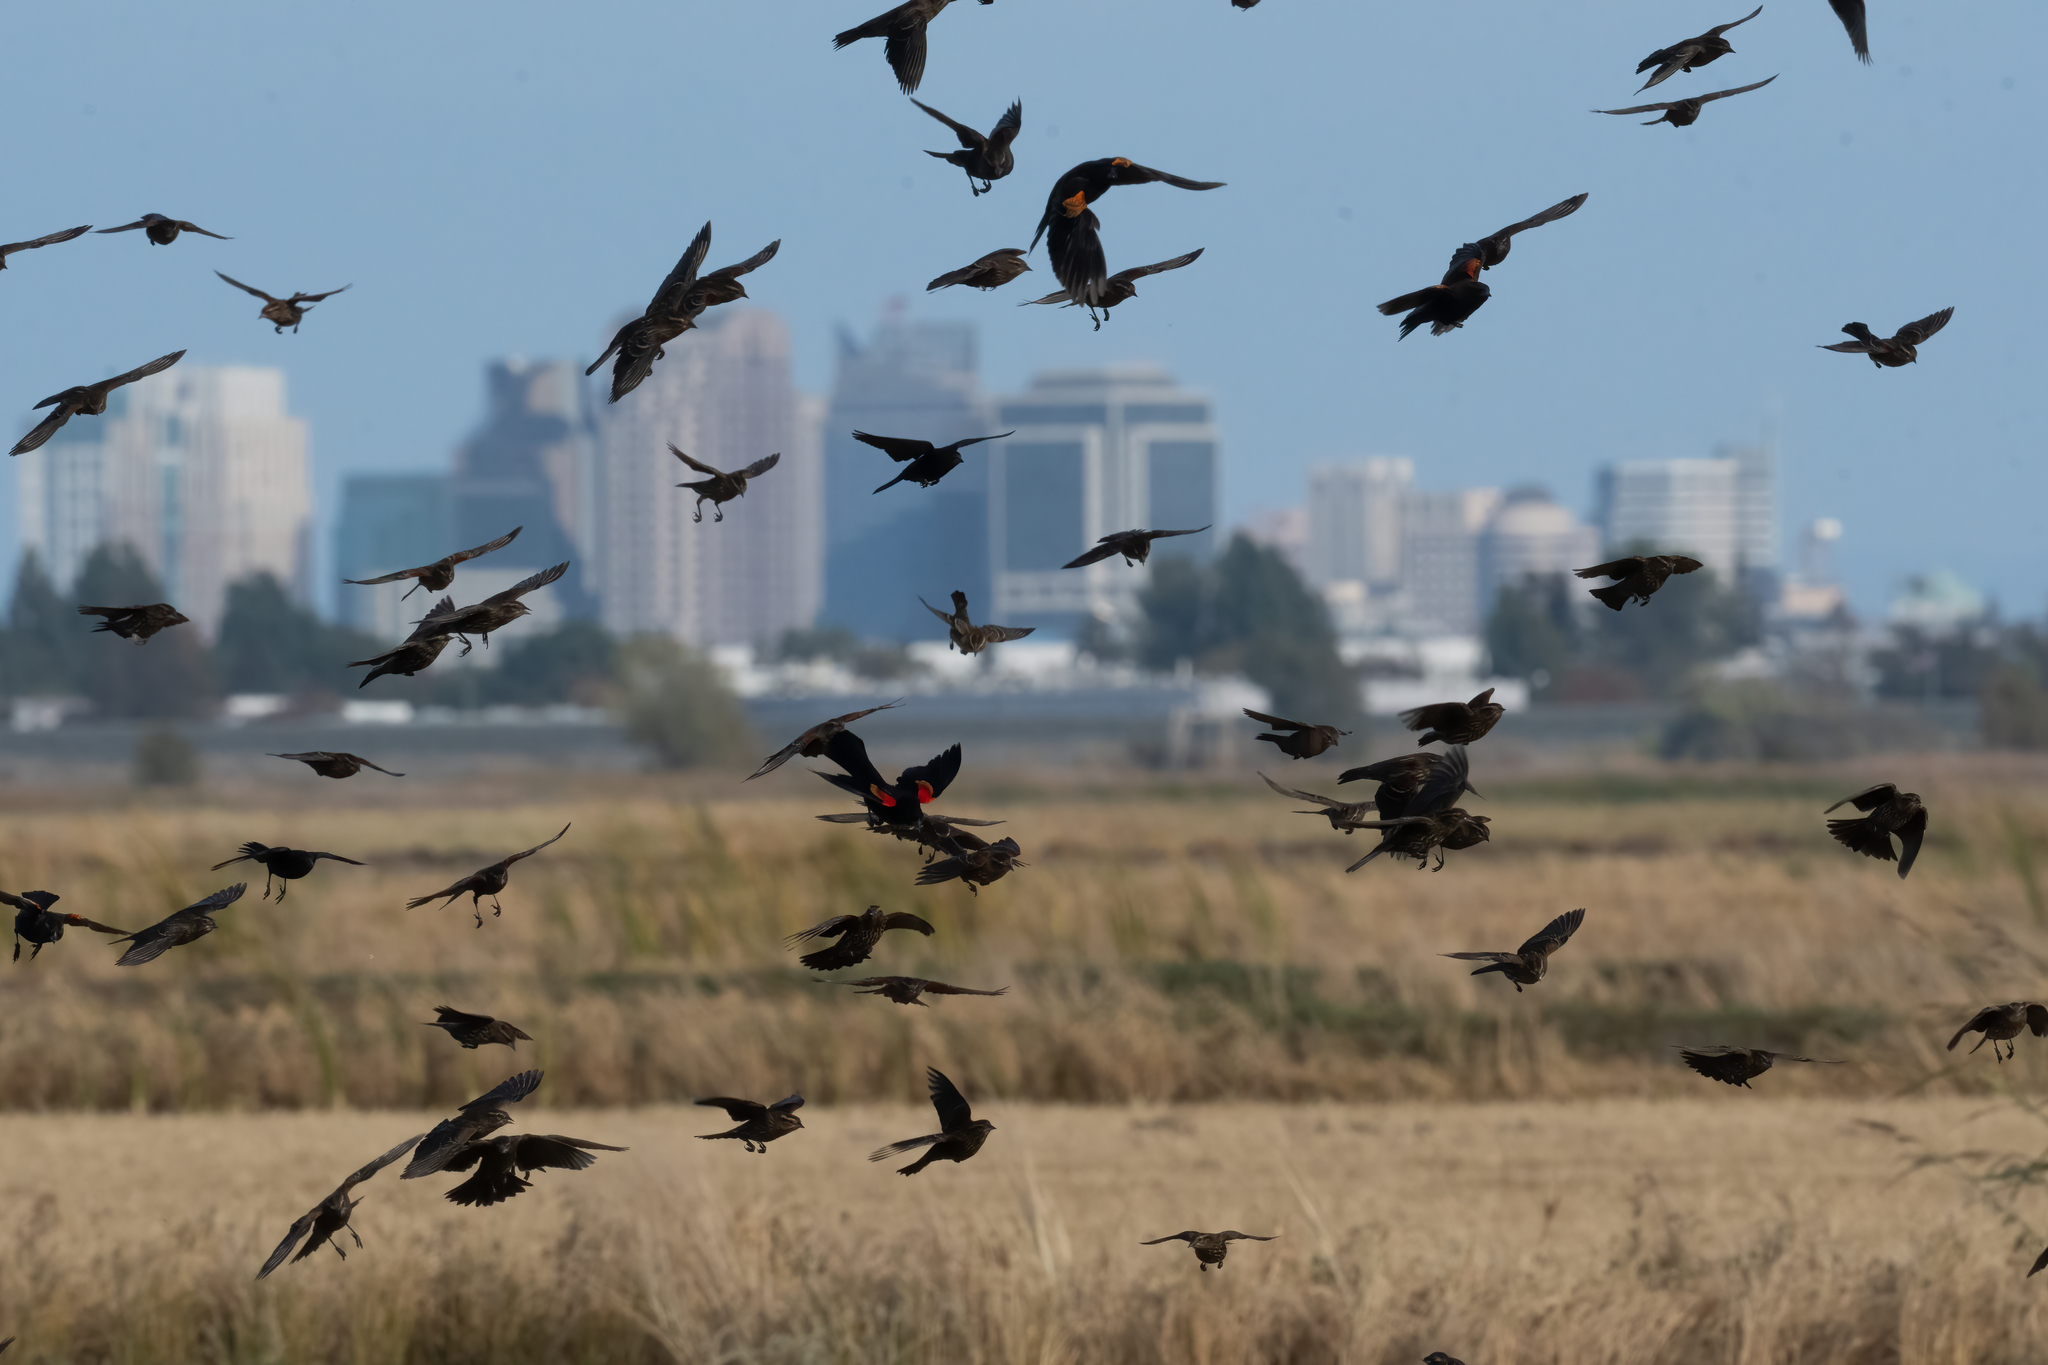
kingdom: Animalia
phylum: Chordata
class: Aves
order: Passeriformes
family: Icteridae
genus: Agelaius
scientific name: Agelaius phoeniceus
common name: Red-winged blackbird
